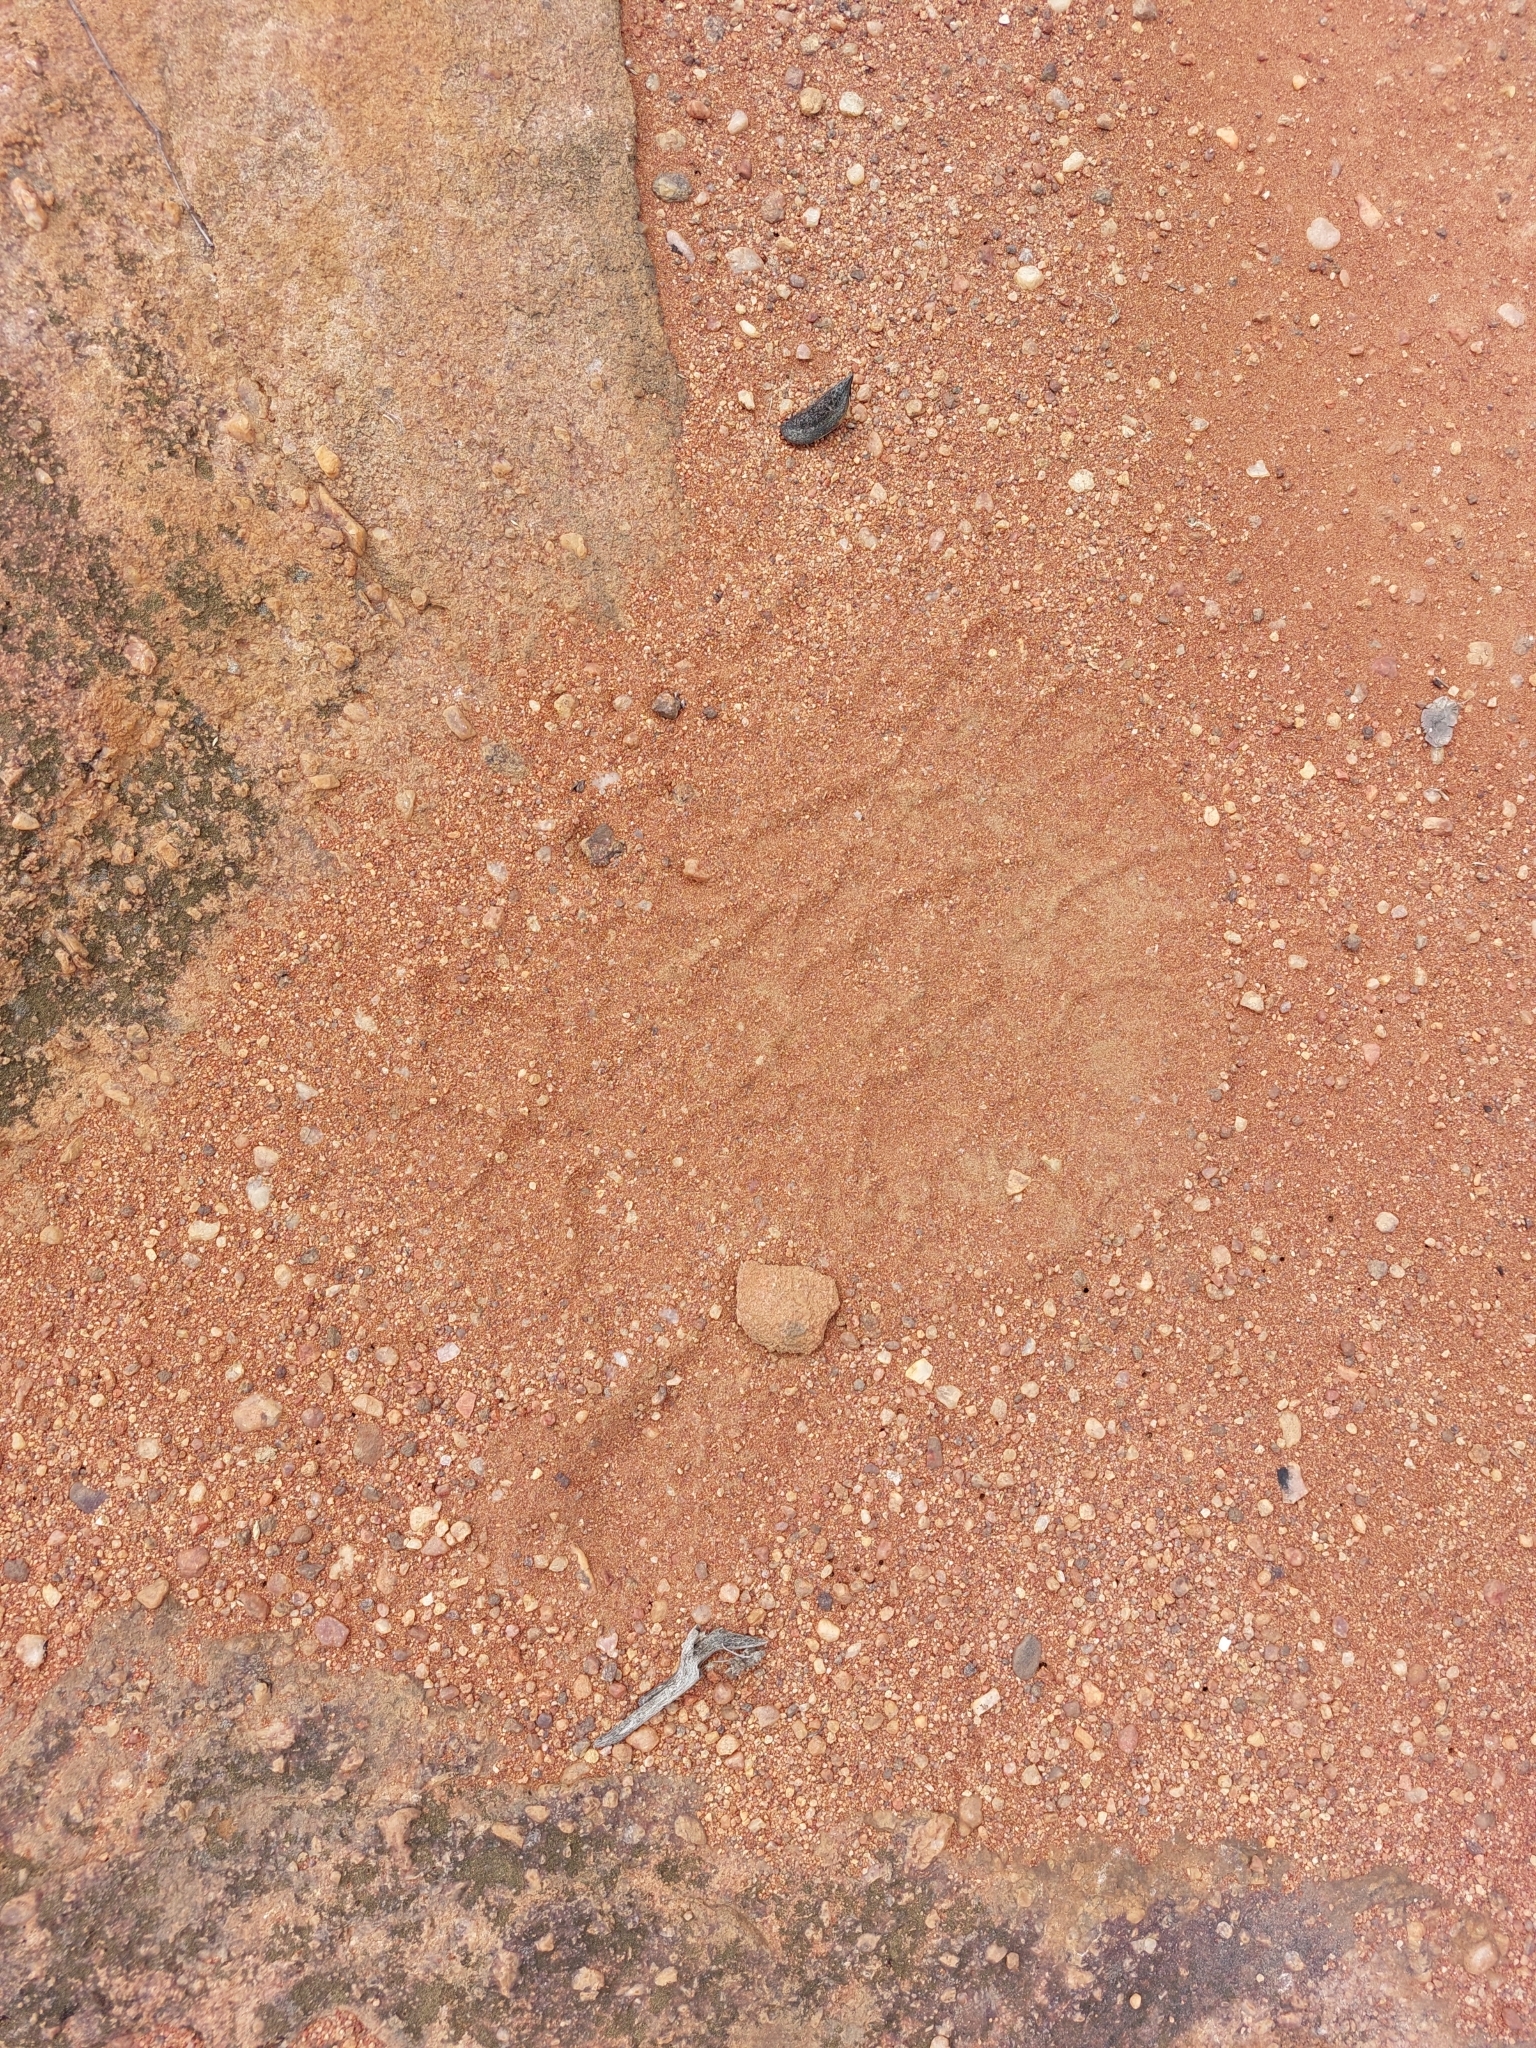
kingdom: Animalia
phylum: Chordata
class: Mammalia
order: Proboscidea
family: Elephantidae
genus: Loxodonta
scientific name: Loxodonta africana
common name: African elephant
